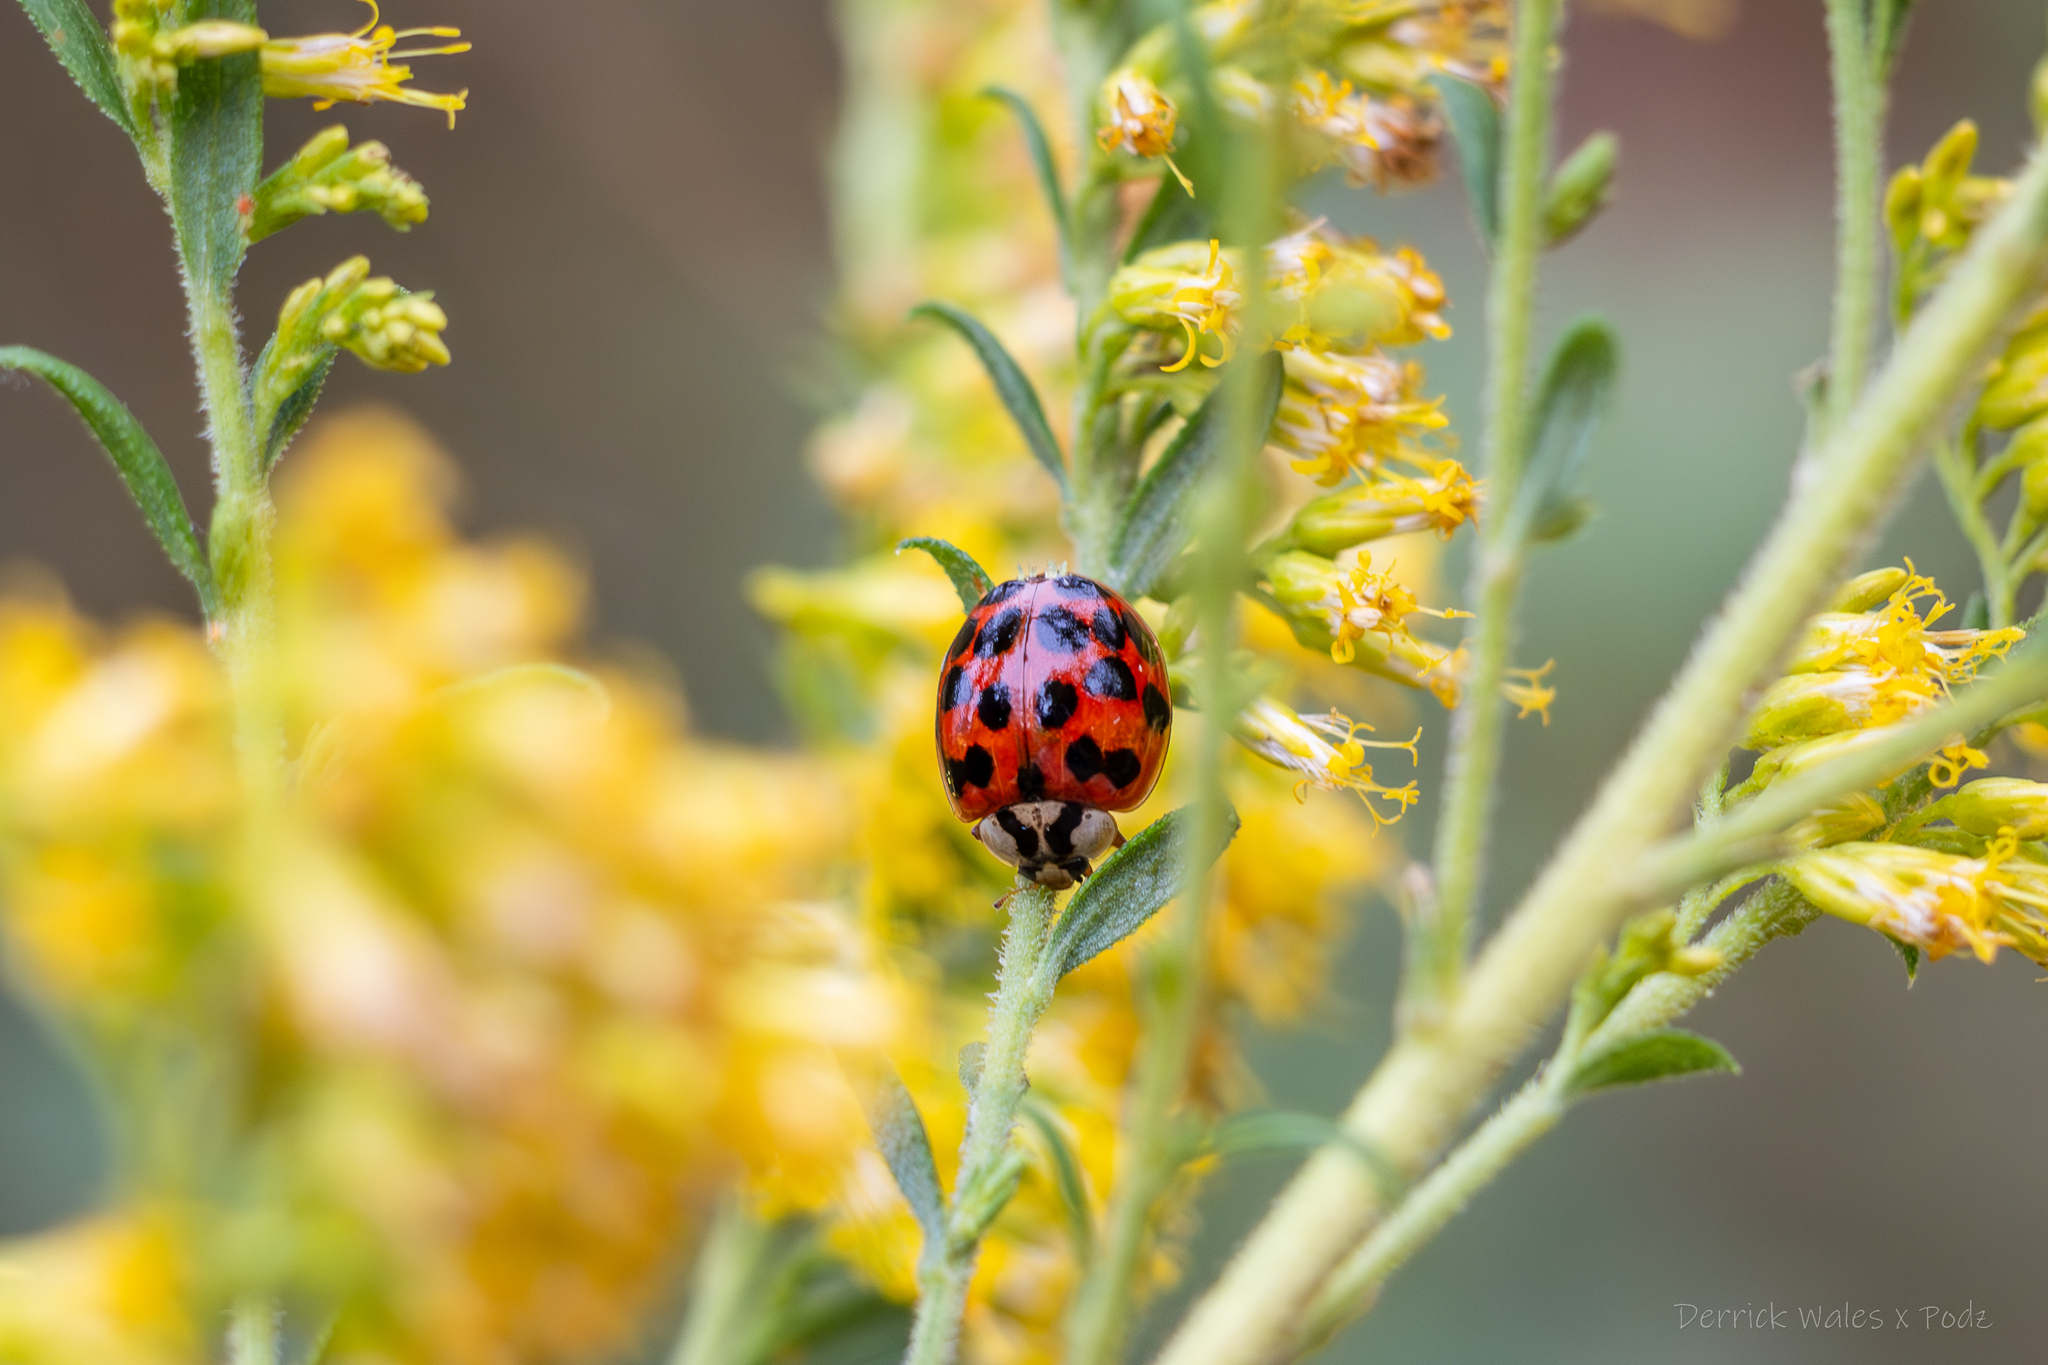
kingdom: Animalia
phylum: Arthropoda
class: Insecta
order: Coleoptera
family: Coccinellidae
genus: Harmonia
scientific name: Harmonia axyridis
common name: Harlequin ladybird
